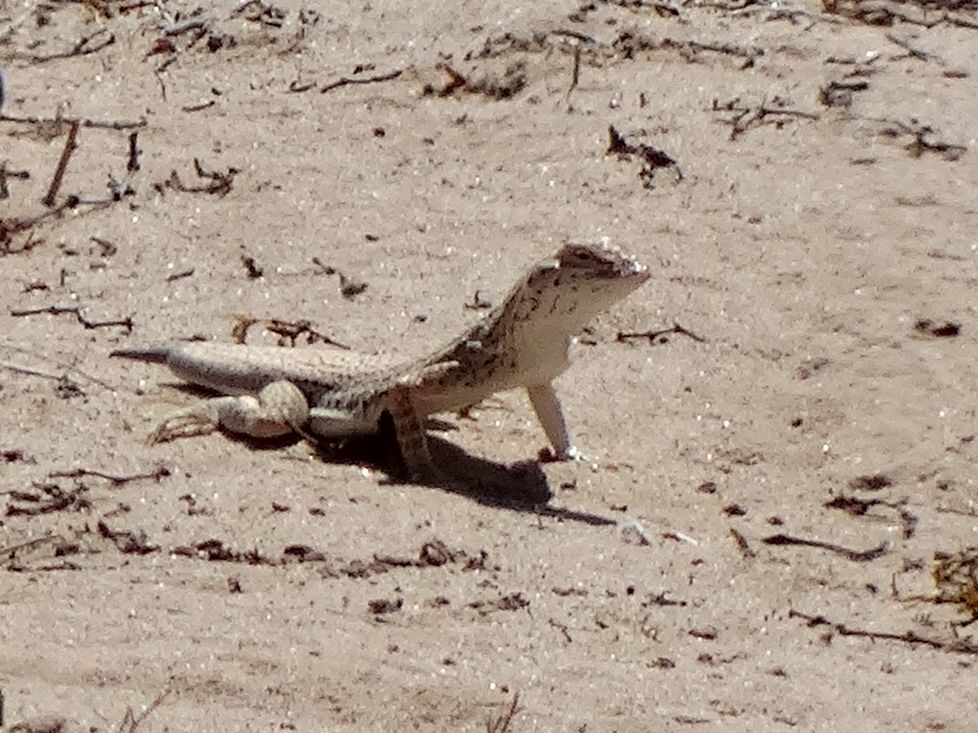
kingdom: Animalia
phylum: Chordata
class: Squamata
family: Phrynosomatidae
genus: Uma
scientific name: Uma thurmanae
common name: Mohawk dunes fringe-toed lizard
